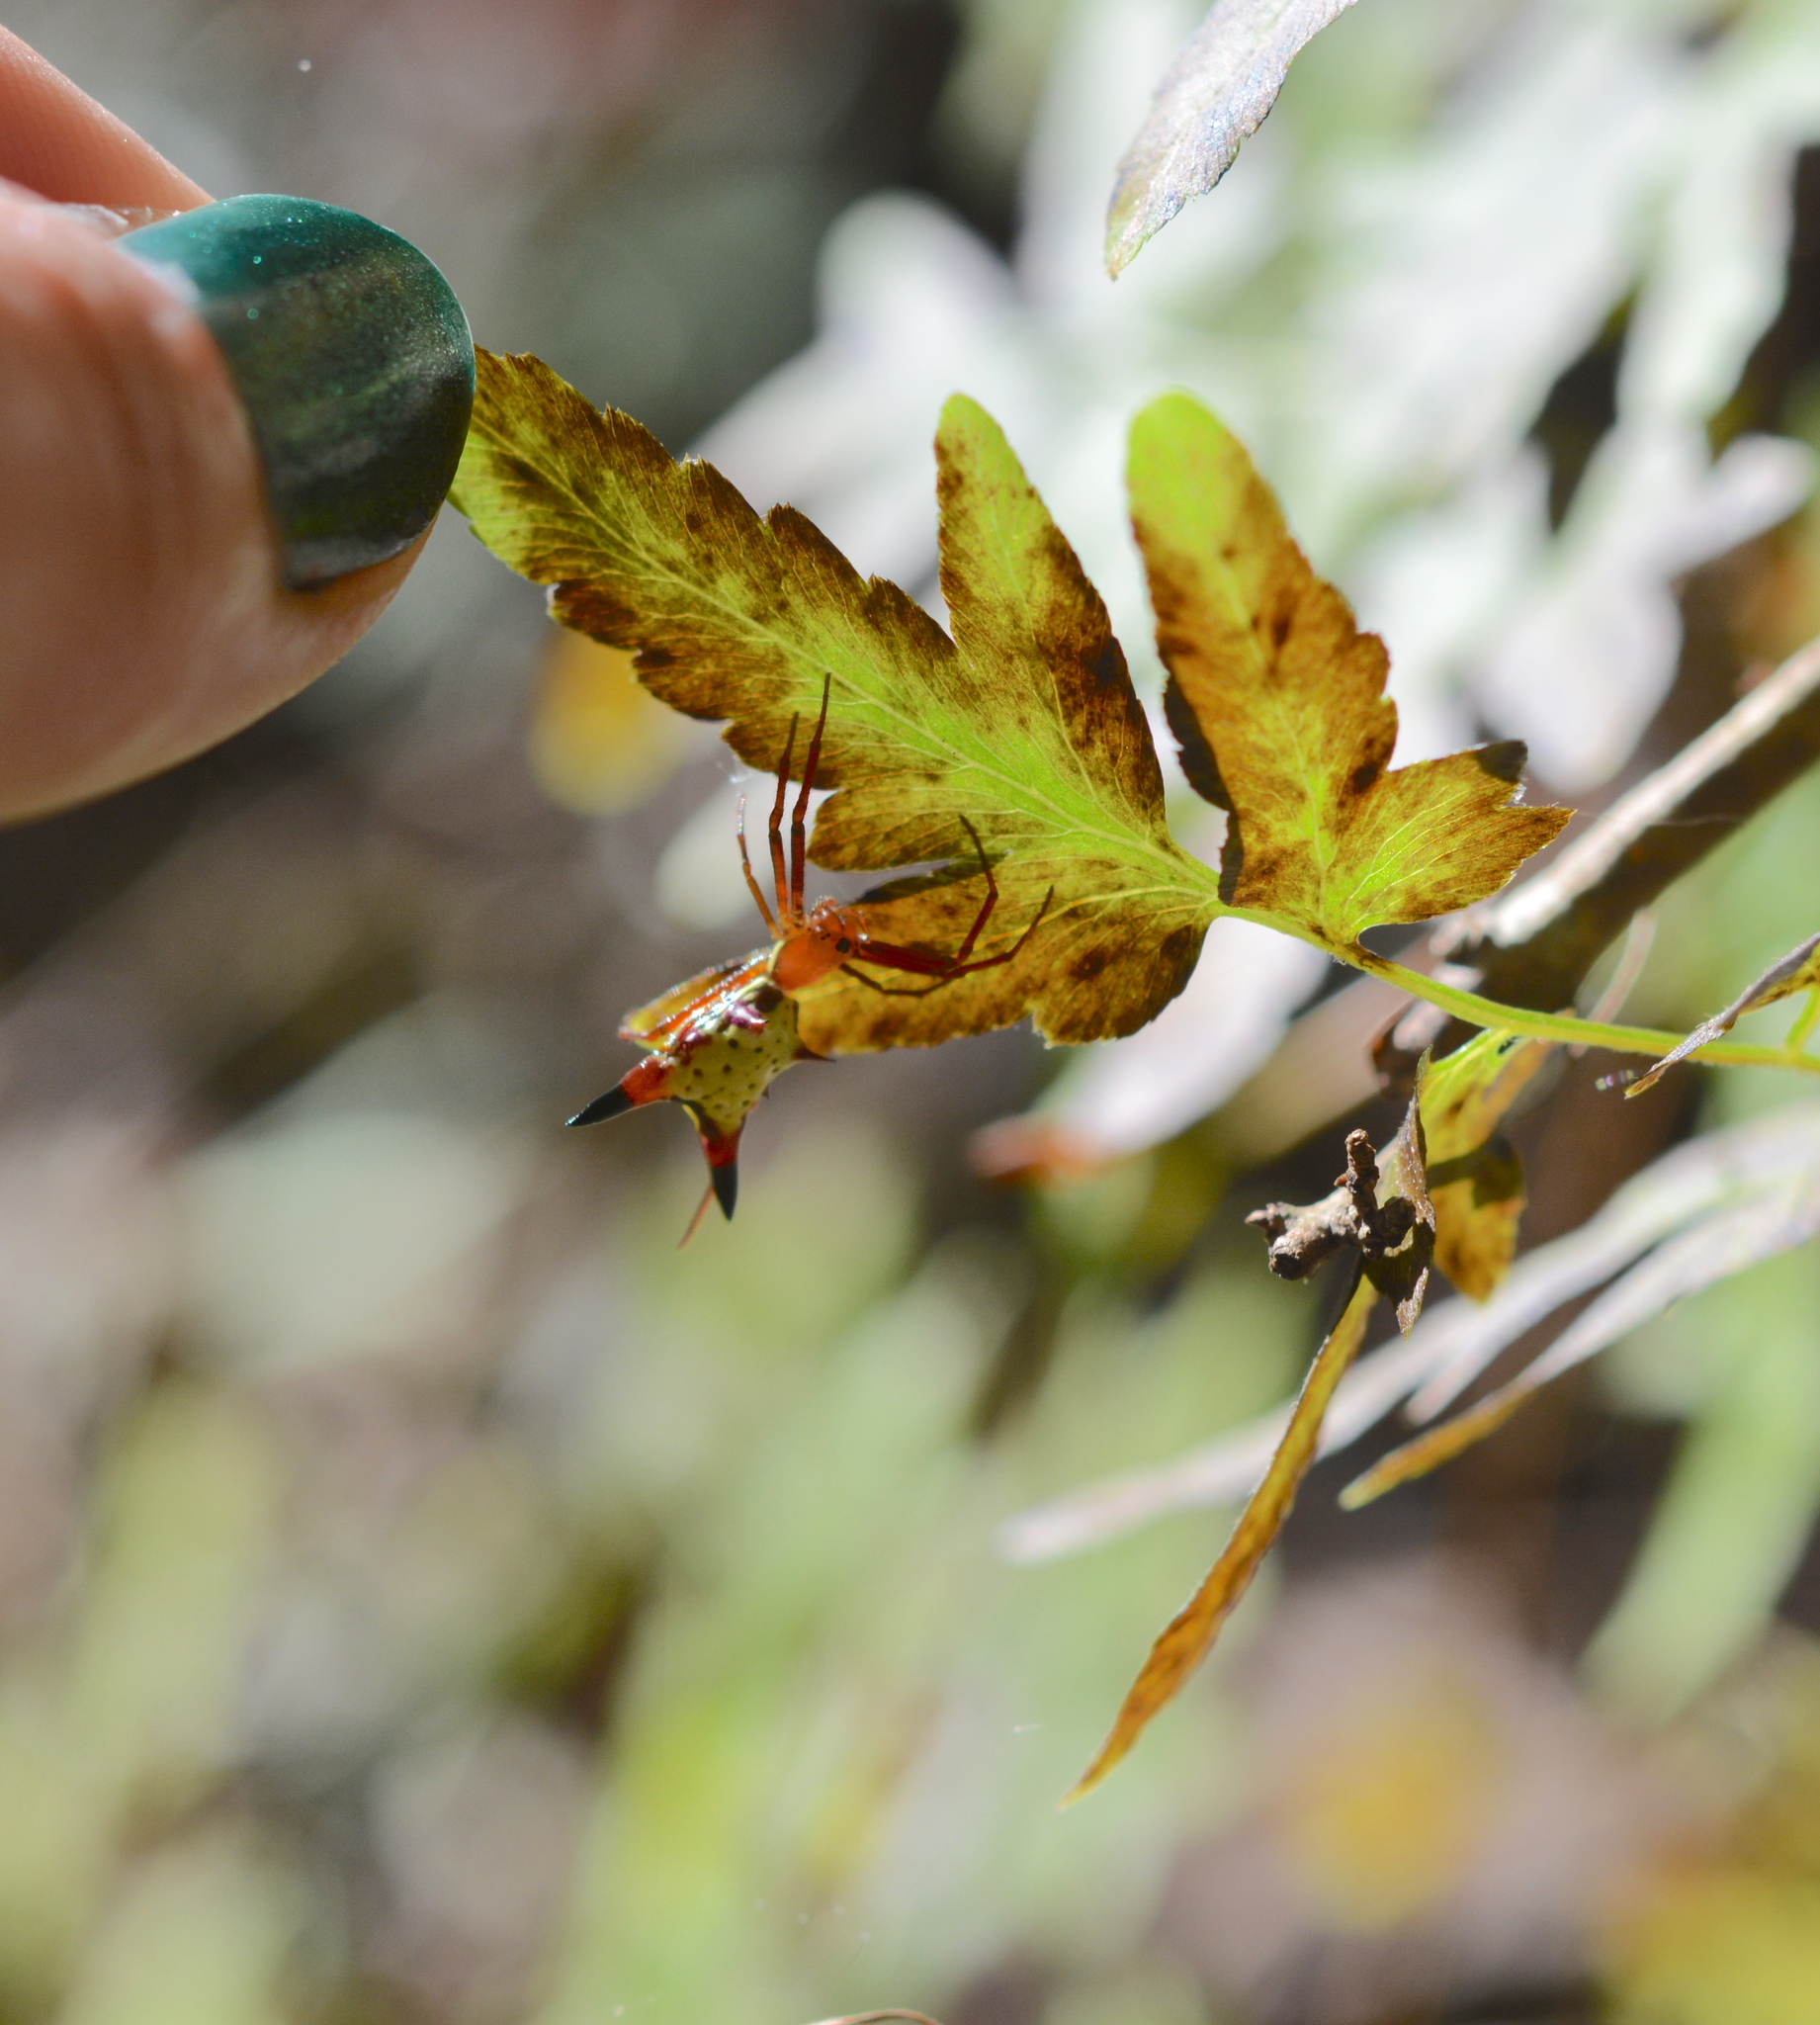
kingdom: Animalia
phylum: Arthropoda
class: Arachnida
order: Araneae
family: Araneidae
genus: Micrathena
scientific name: Micrathena sagittata
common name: Orb weavers
